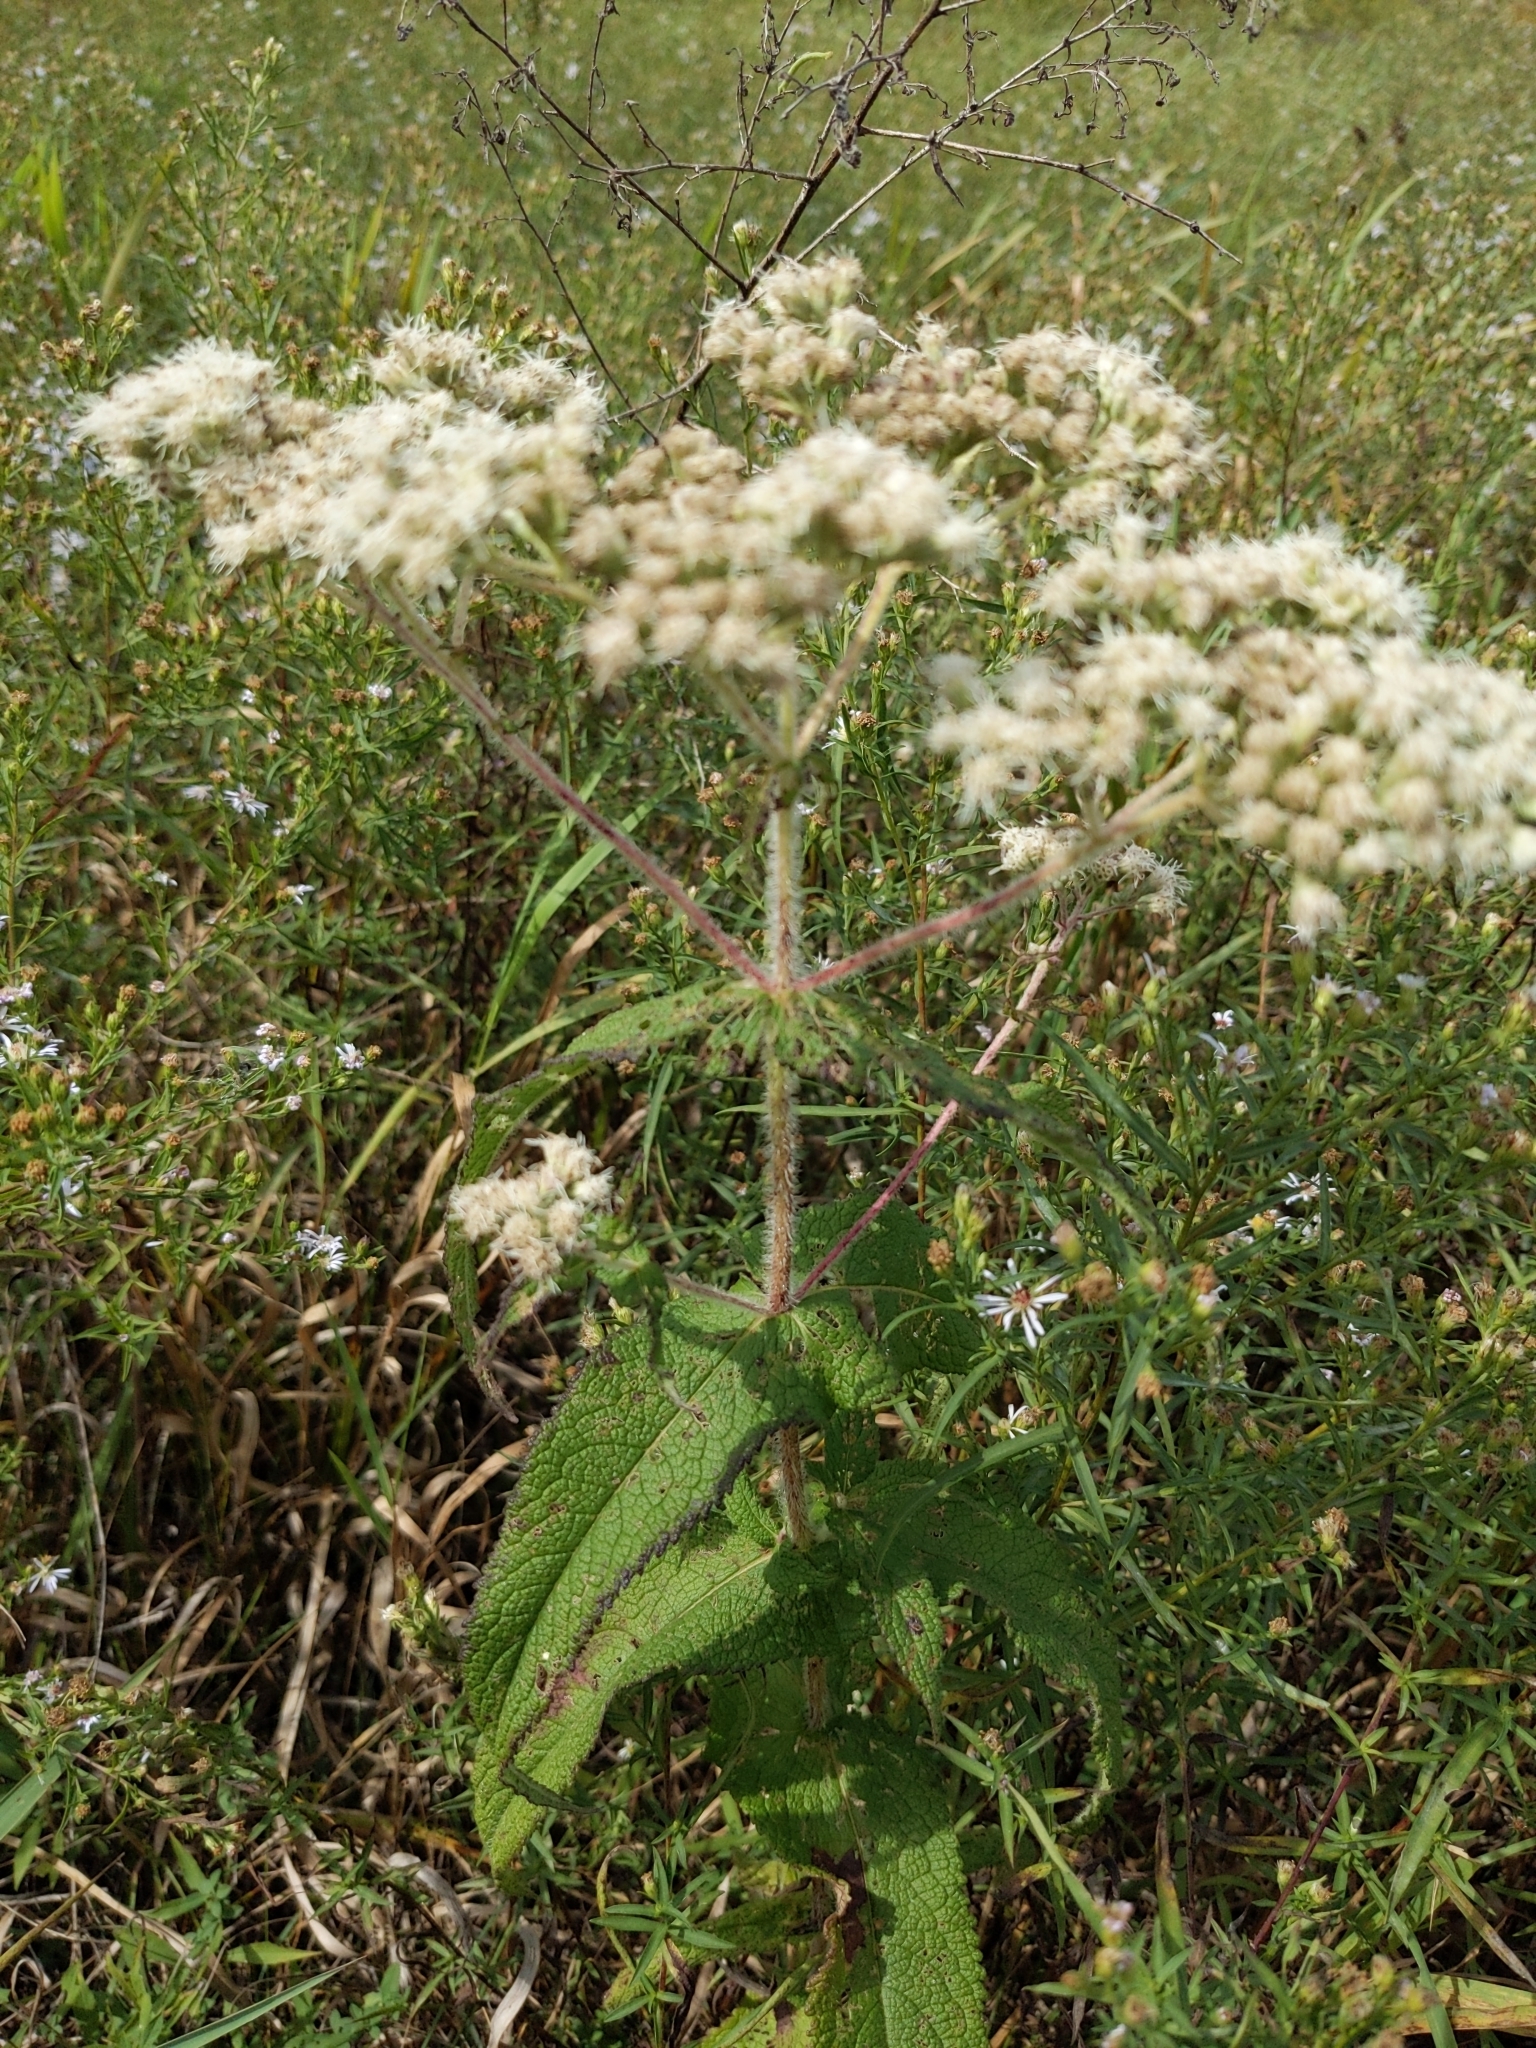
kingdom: Plantae
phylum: Tracheophyta
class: Magnoliopsida
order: Asterales
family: Asteraceae
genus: Eupatorium
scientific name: Eupatorium perfoliatum
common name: Boneset
